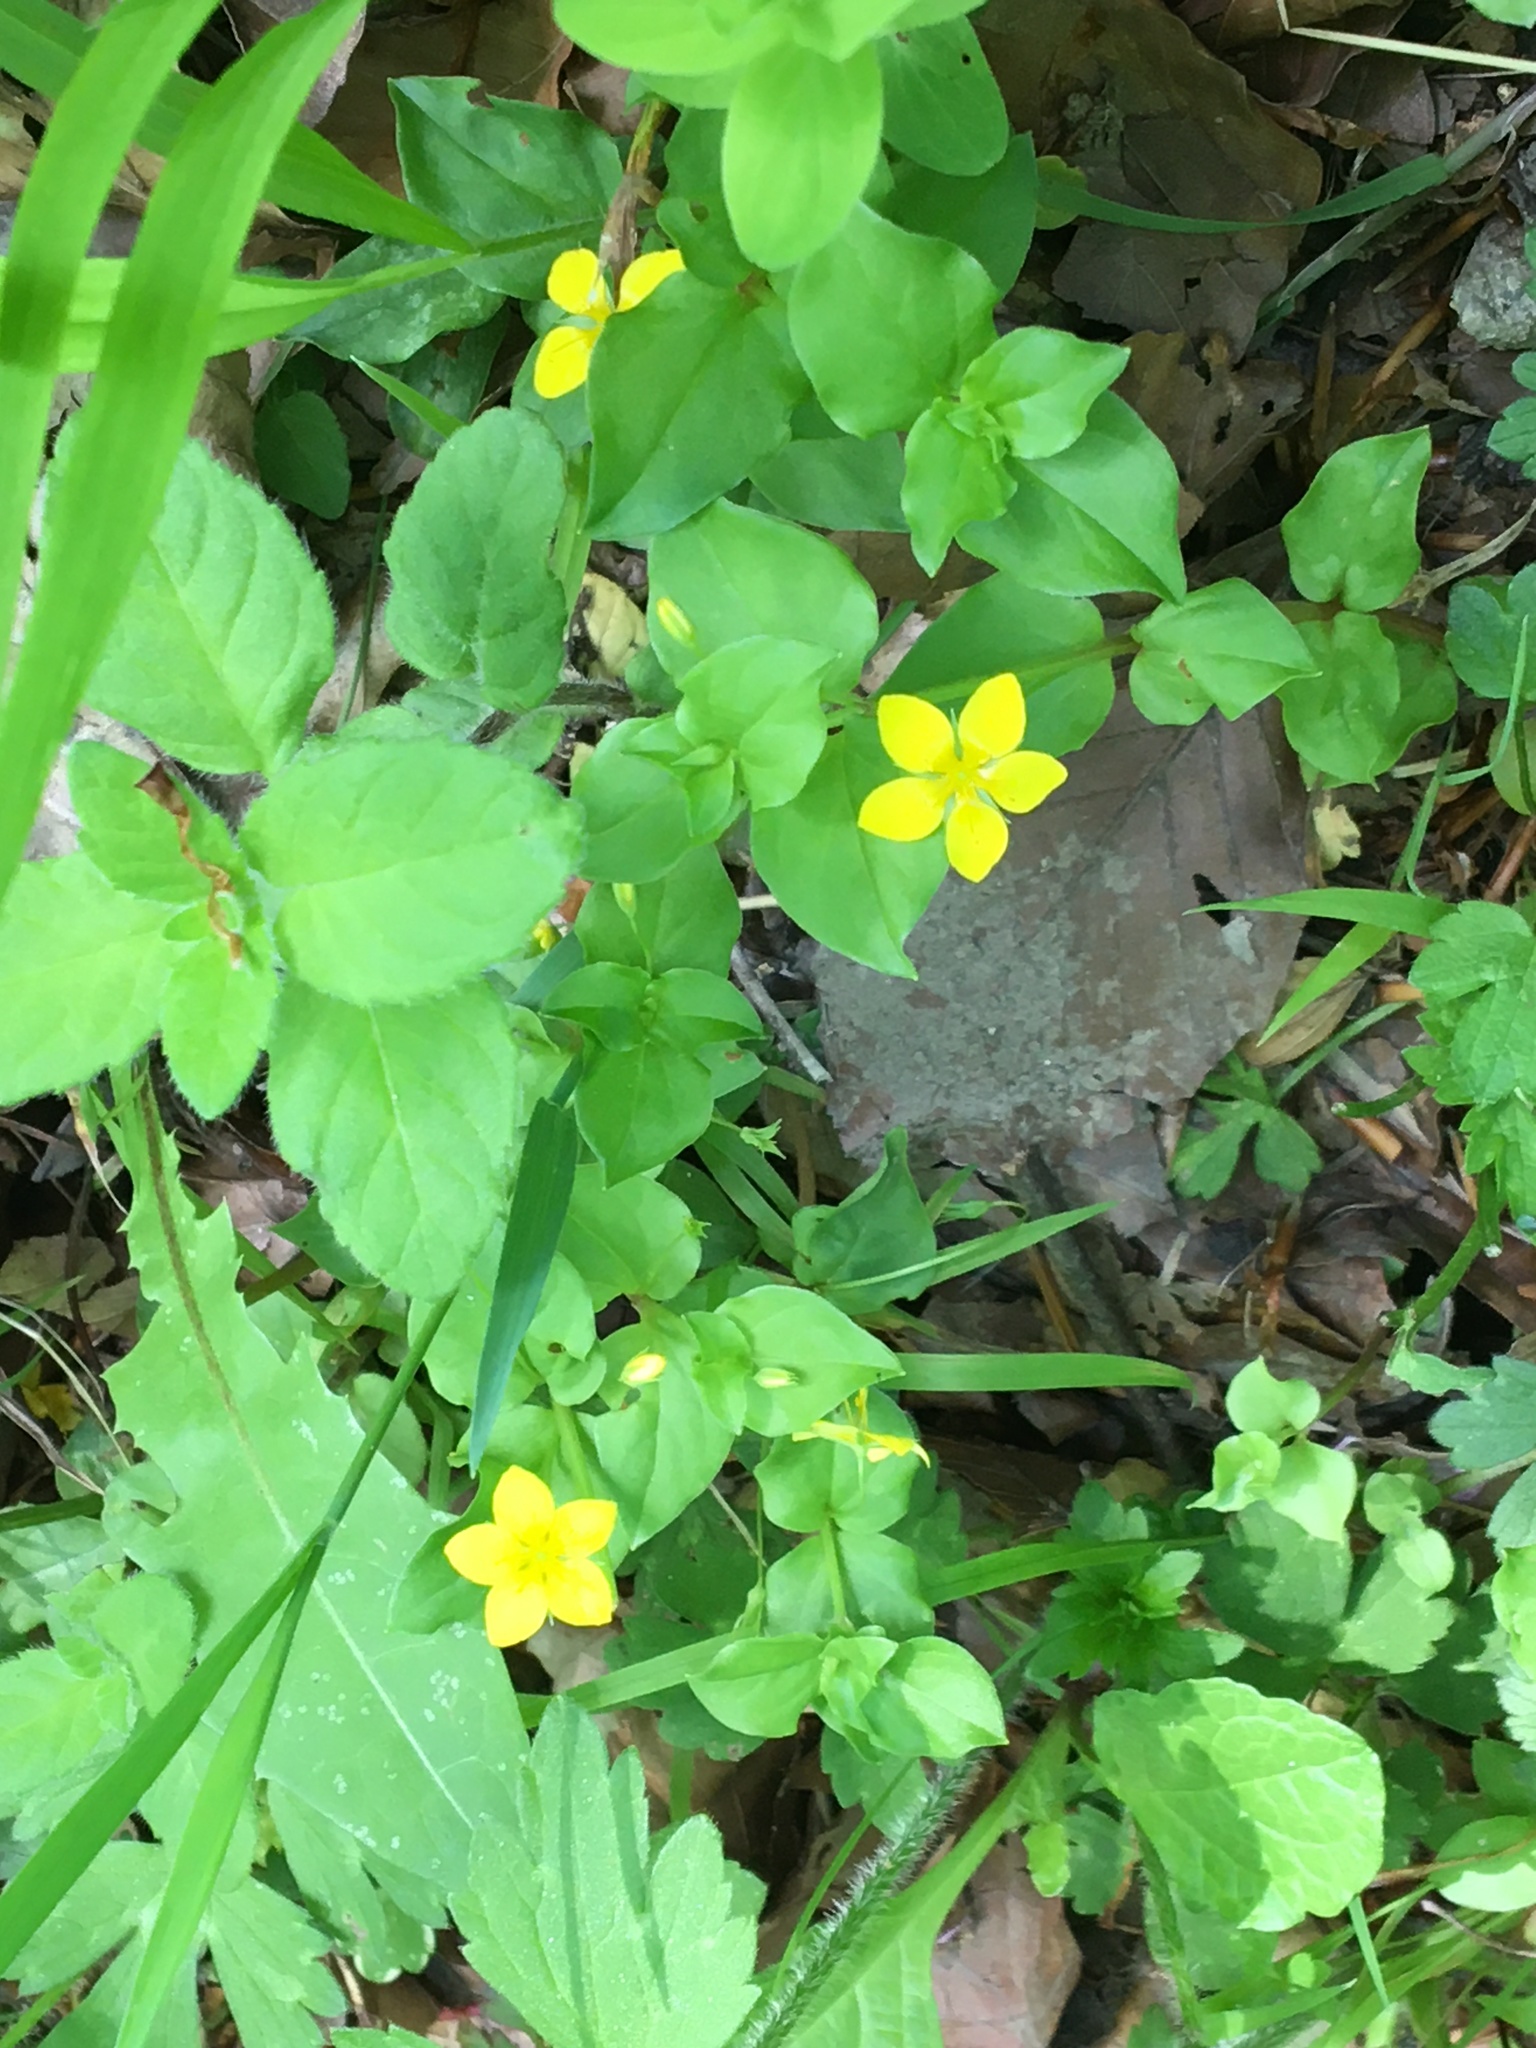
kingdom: Plantae
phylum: Tracheophyta
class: Magnoliopsida
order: Ericales
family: Primulaceae
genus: Lysimachia
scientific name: Lysimachia nemorum
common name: Yellow pimpernel
